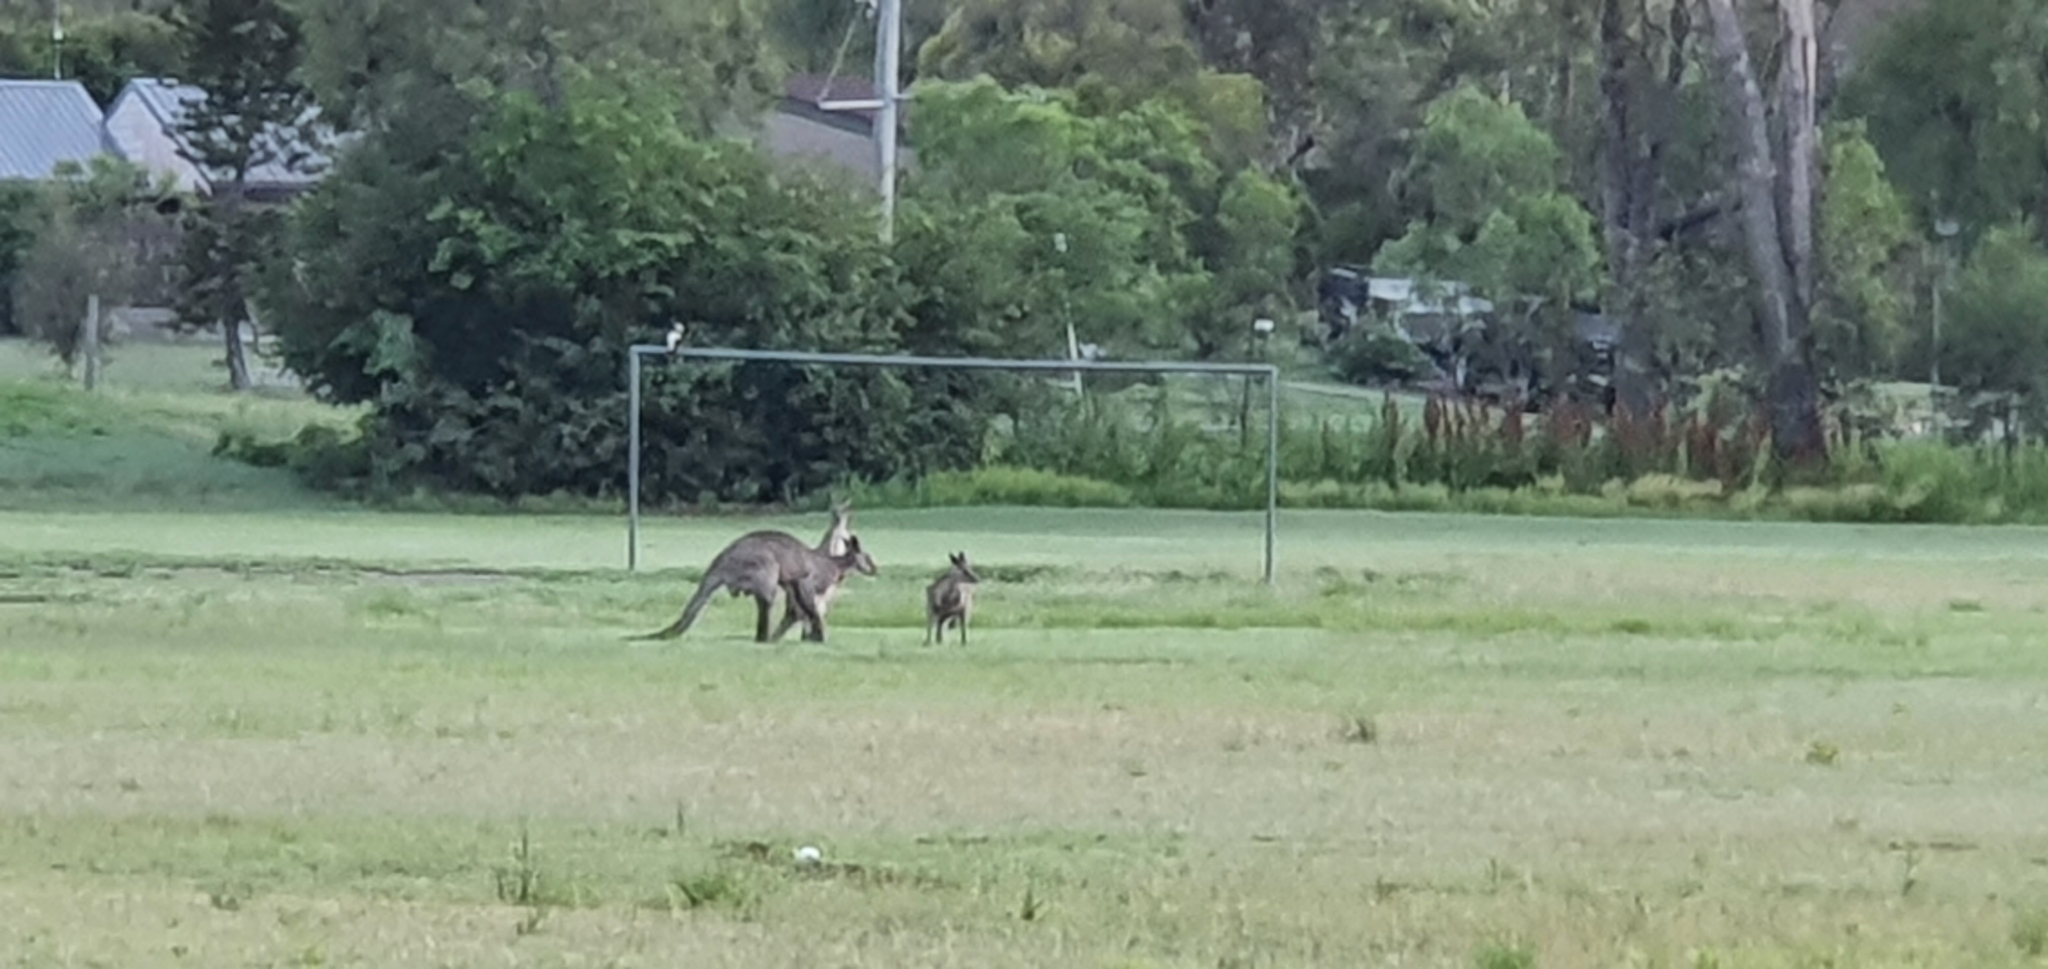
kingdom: Animalia
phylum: Chordata
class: Mammalia
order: Diprotodontia
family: Macropodidae
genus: Macropus
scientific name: Macropus giganteus
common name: Eastern grey kangaroo
